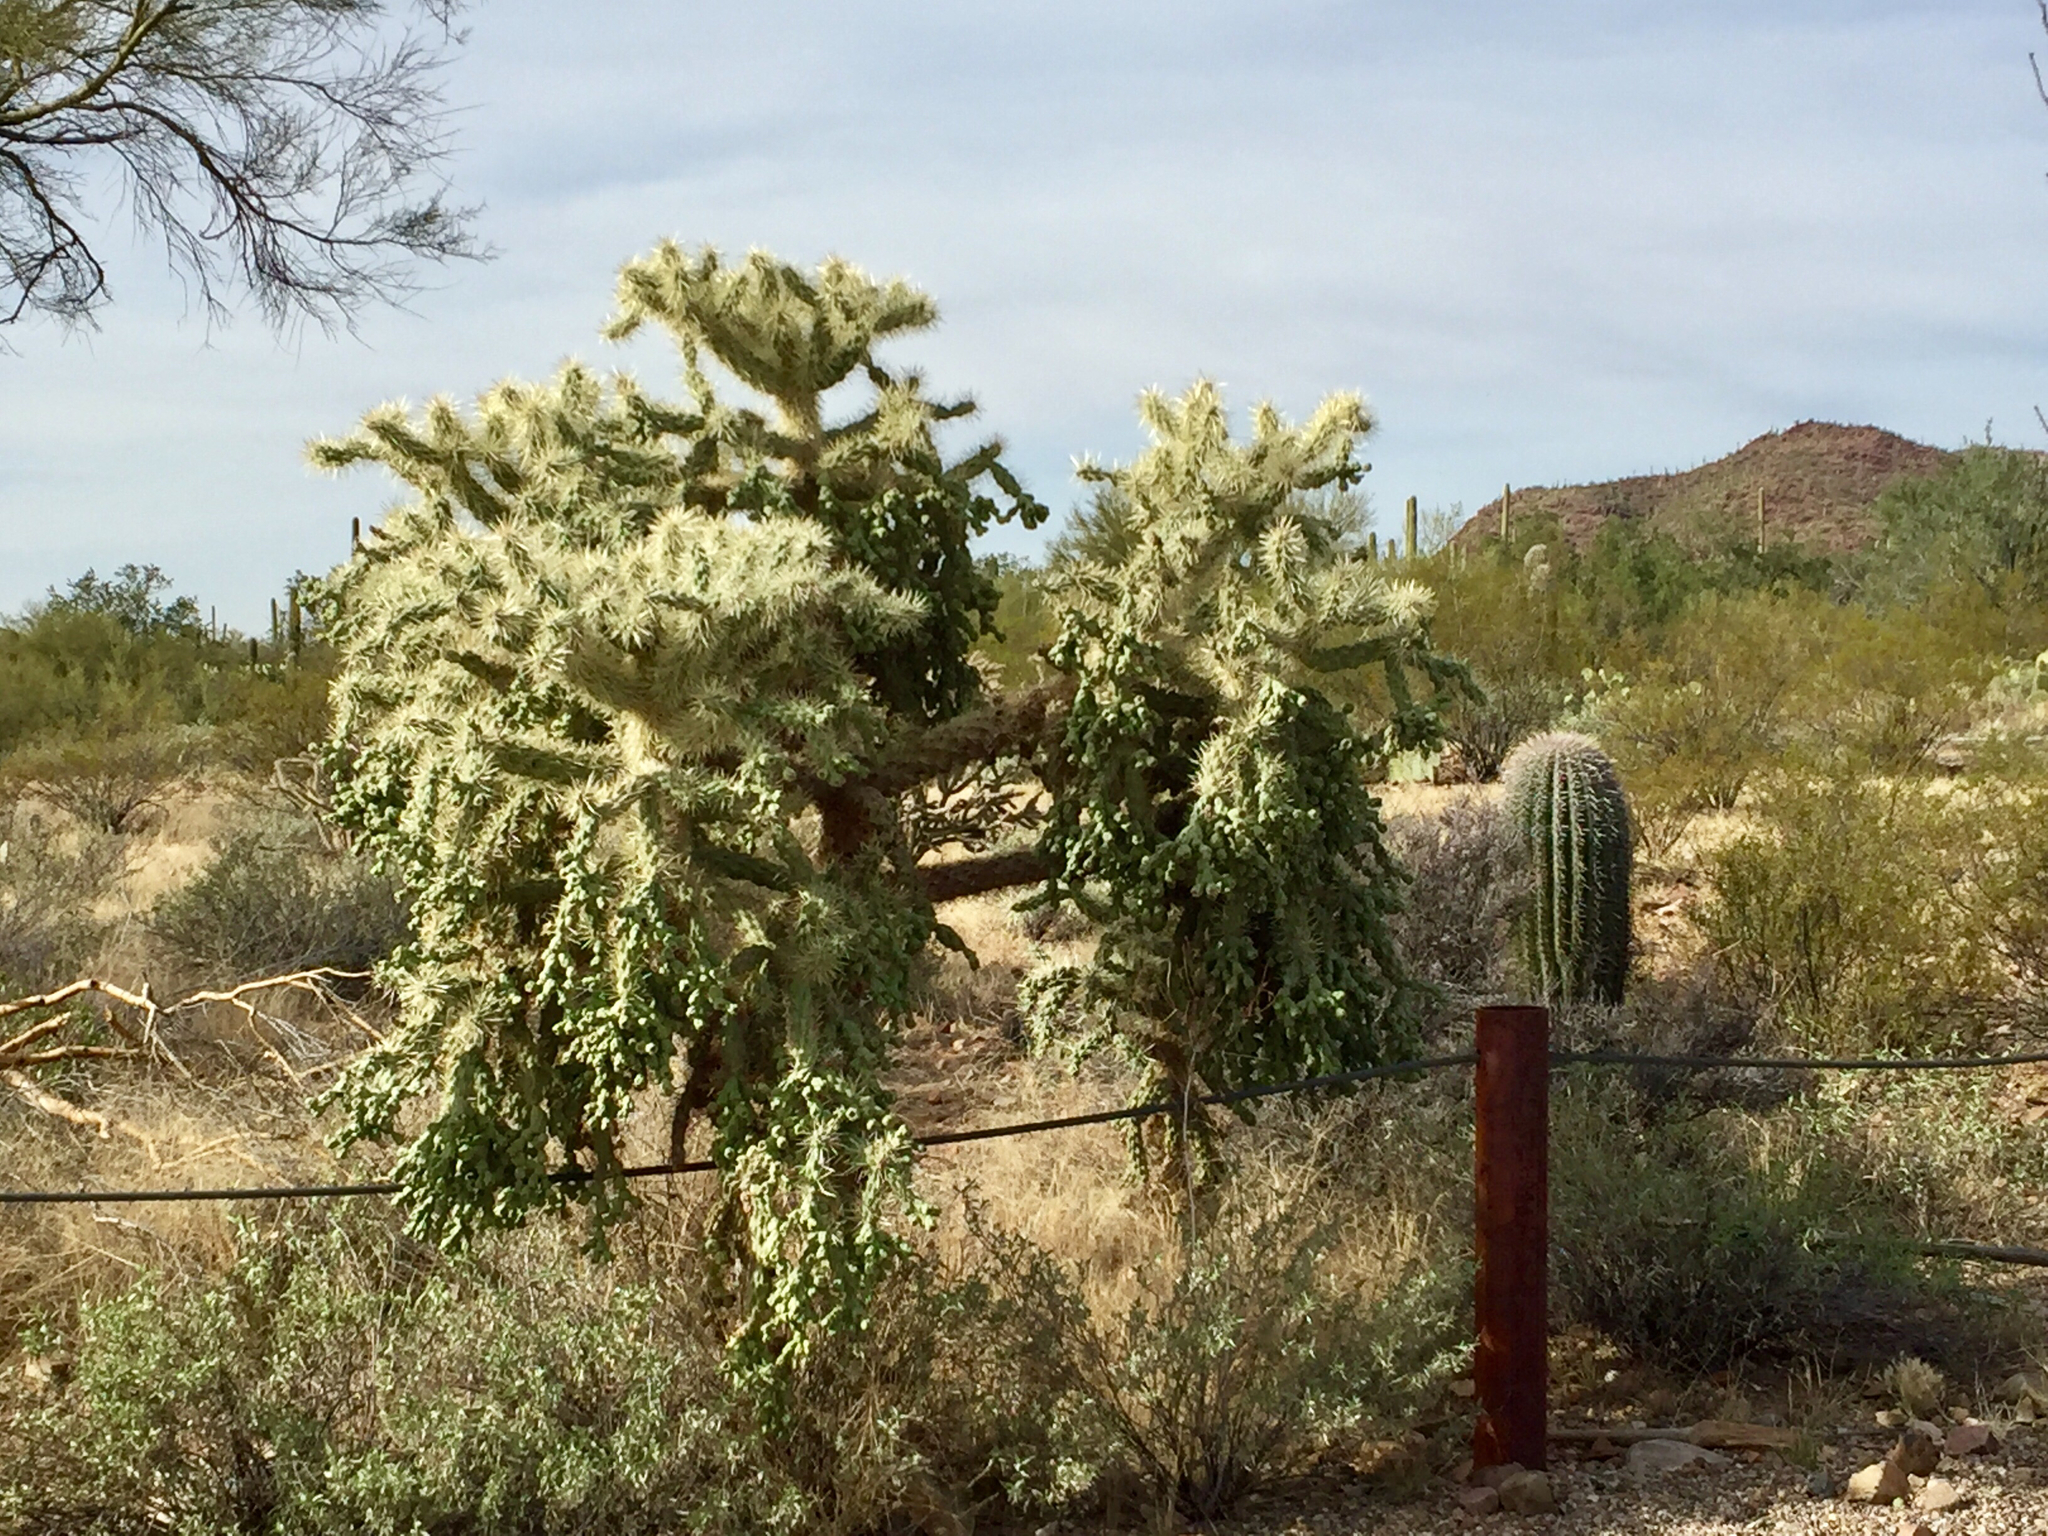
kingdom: Plantae
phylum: Tracheophyta
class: Magnoliopsida
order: Caryophyllales
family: Cactaceae
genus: Cylindropuntia
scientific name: Cylindropuntia fulgida
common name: Jumping cholla
